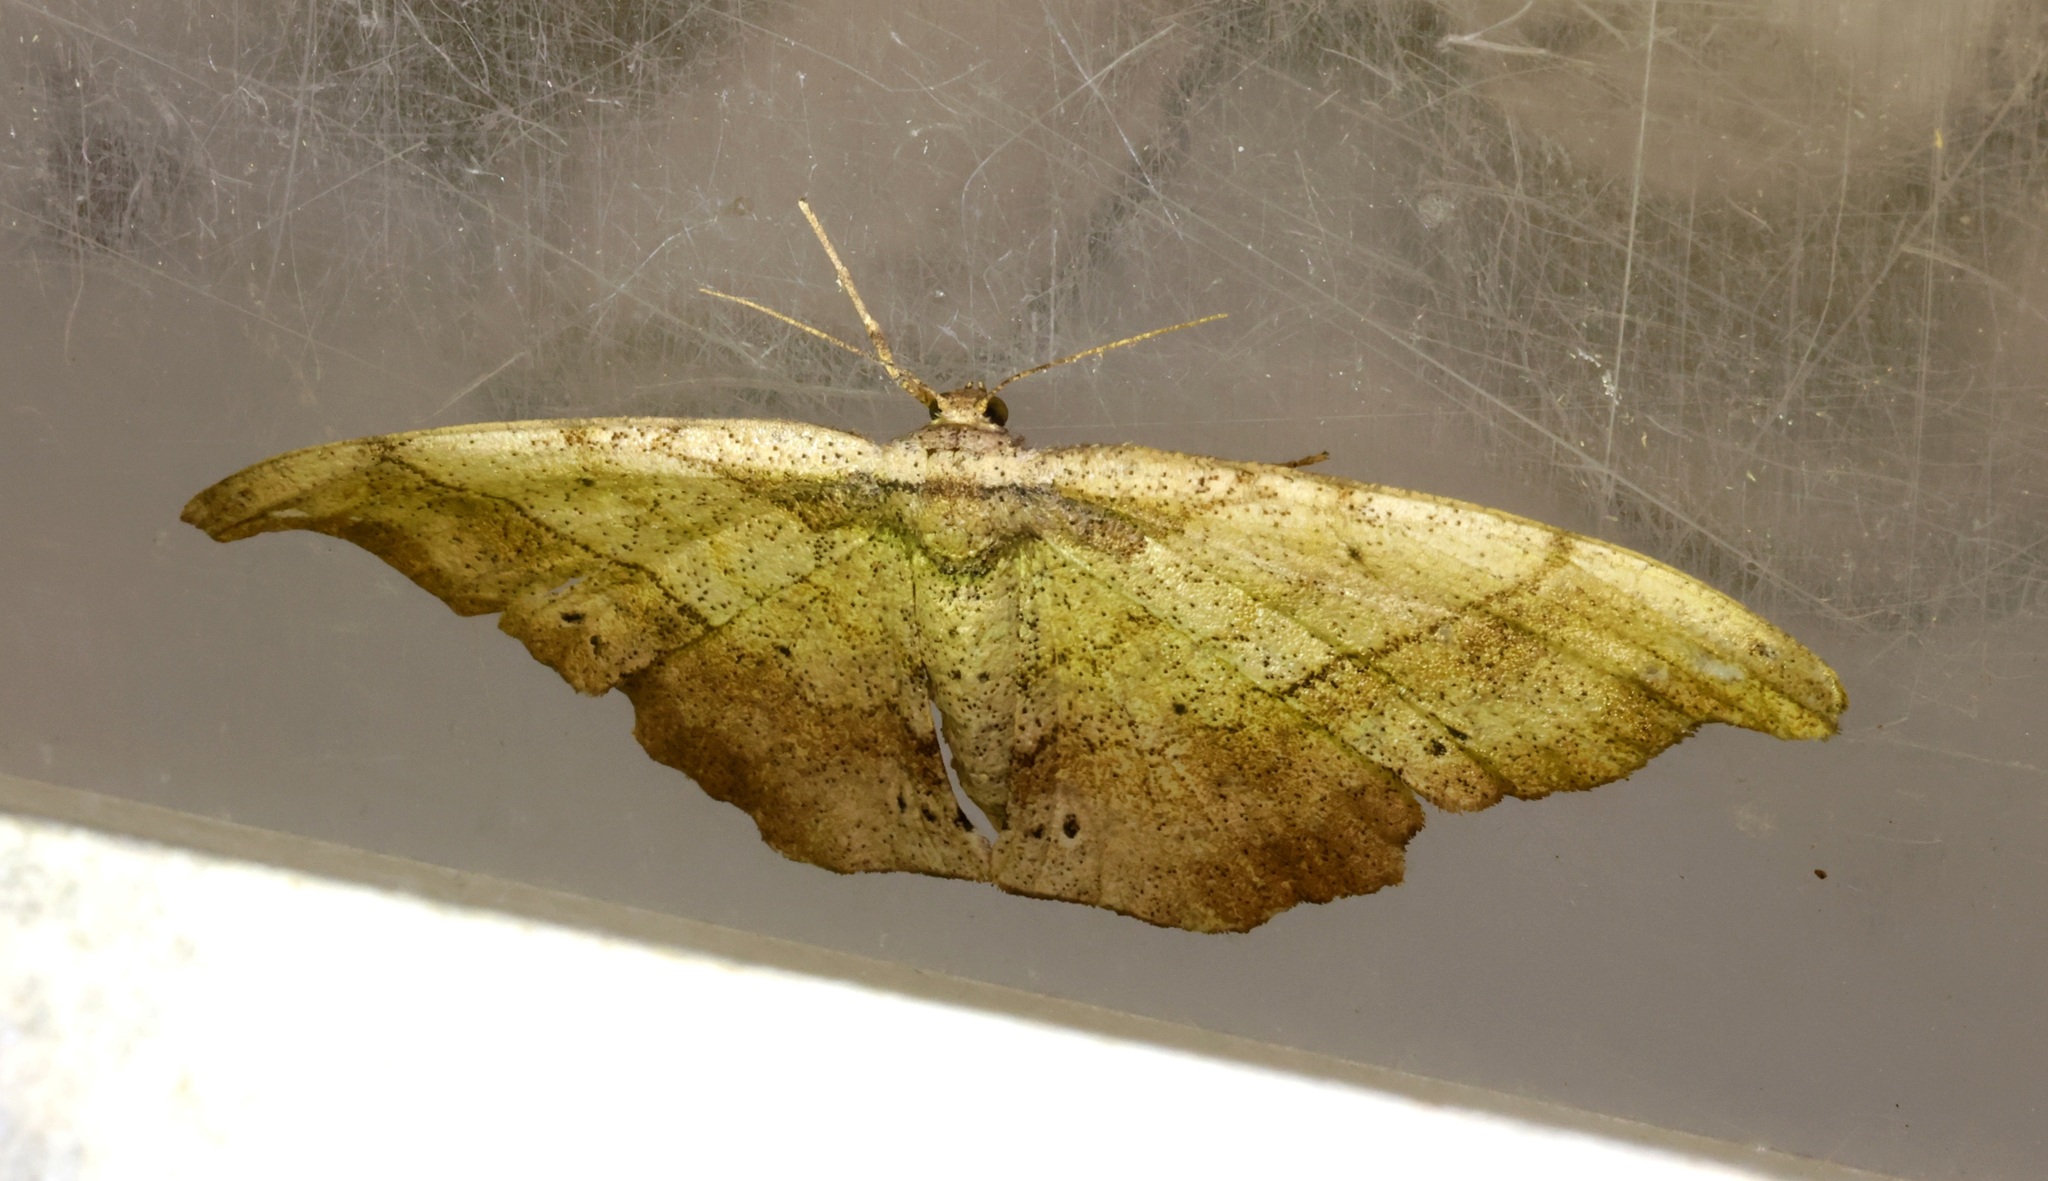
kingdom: Animalia
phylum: Arthropoda
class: Insecta
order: Lepidoptera
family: Geometridae
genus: Hyposidra
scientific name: Hyposidra infixaria
